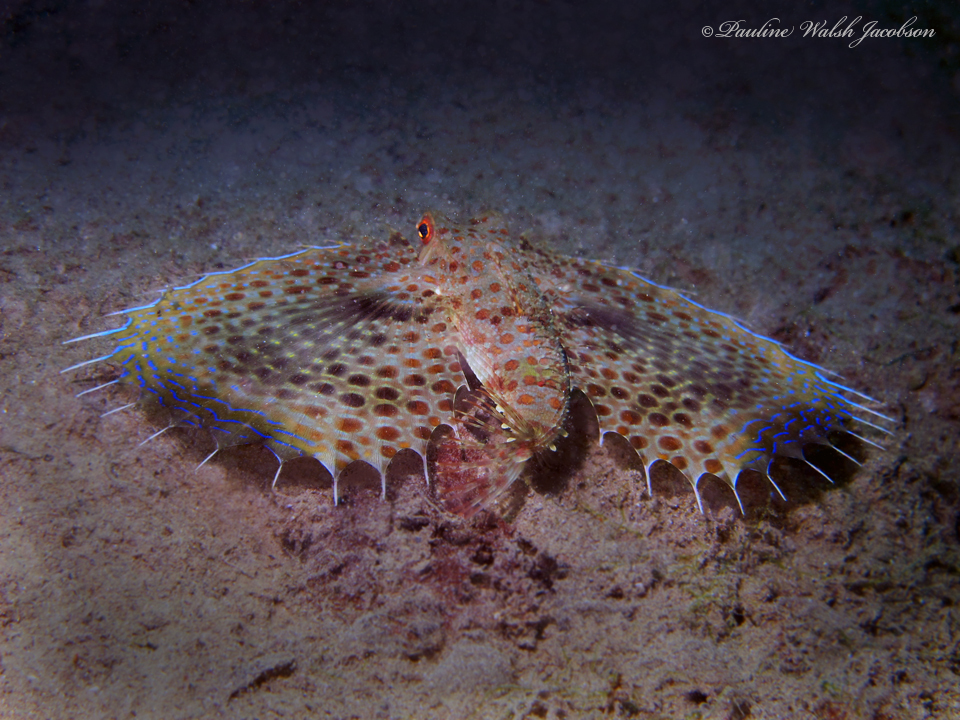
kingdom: Animalia
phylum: Chordata
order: Scorpaeniformes
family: Dactylopteridae
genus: Dactyloptena
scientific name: Dactyloptena orientalis
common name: Flying gurnard
